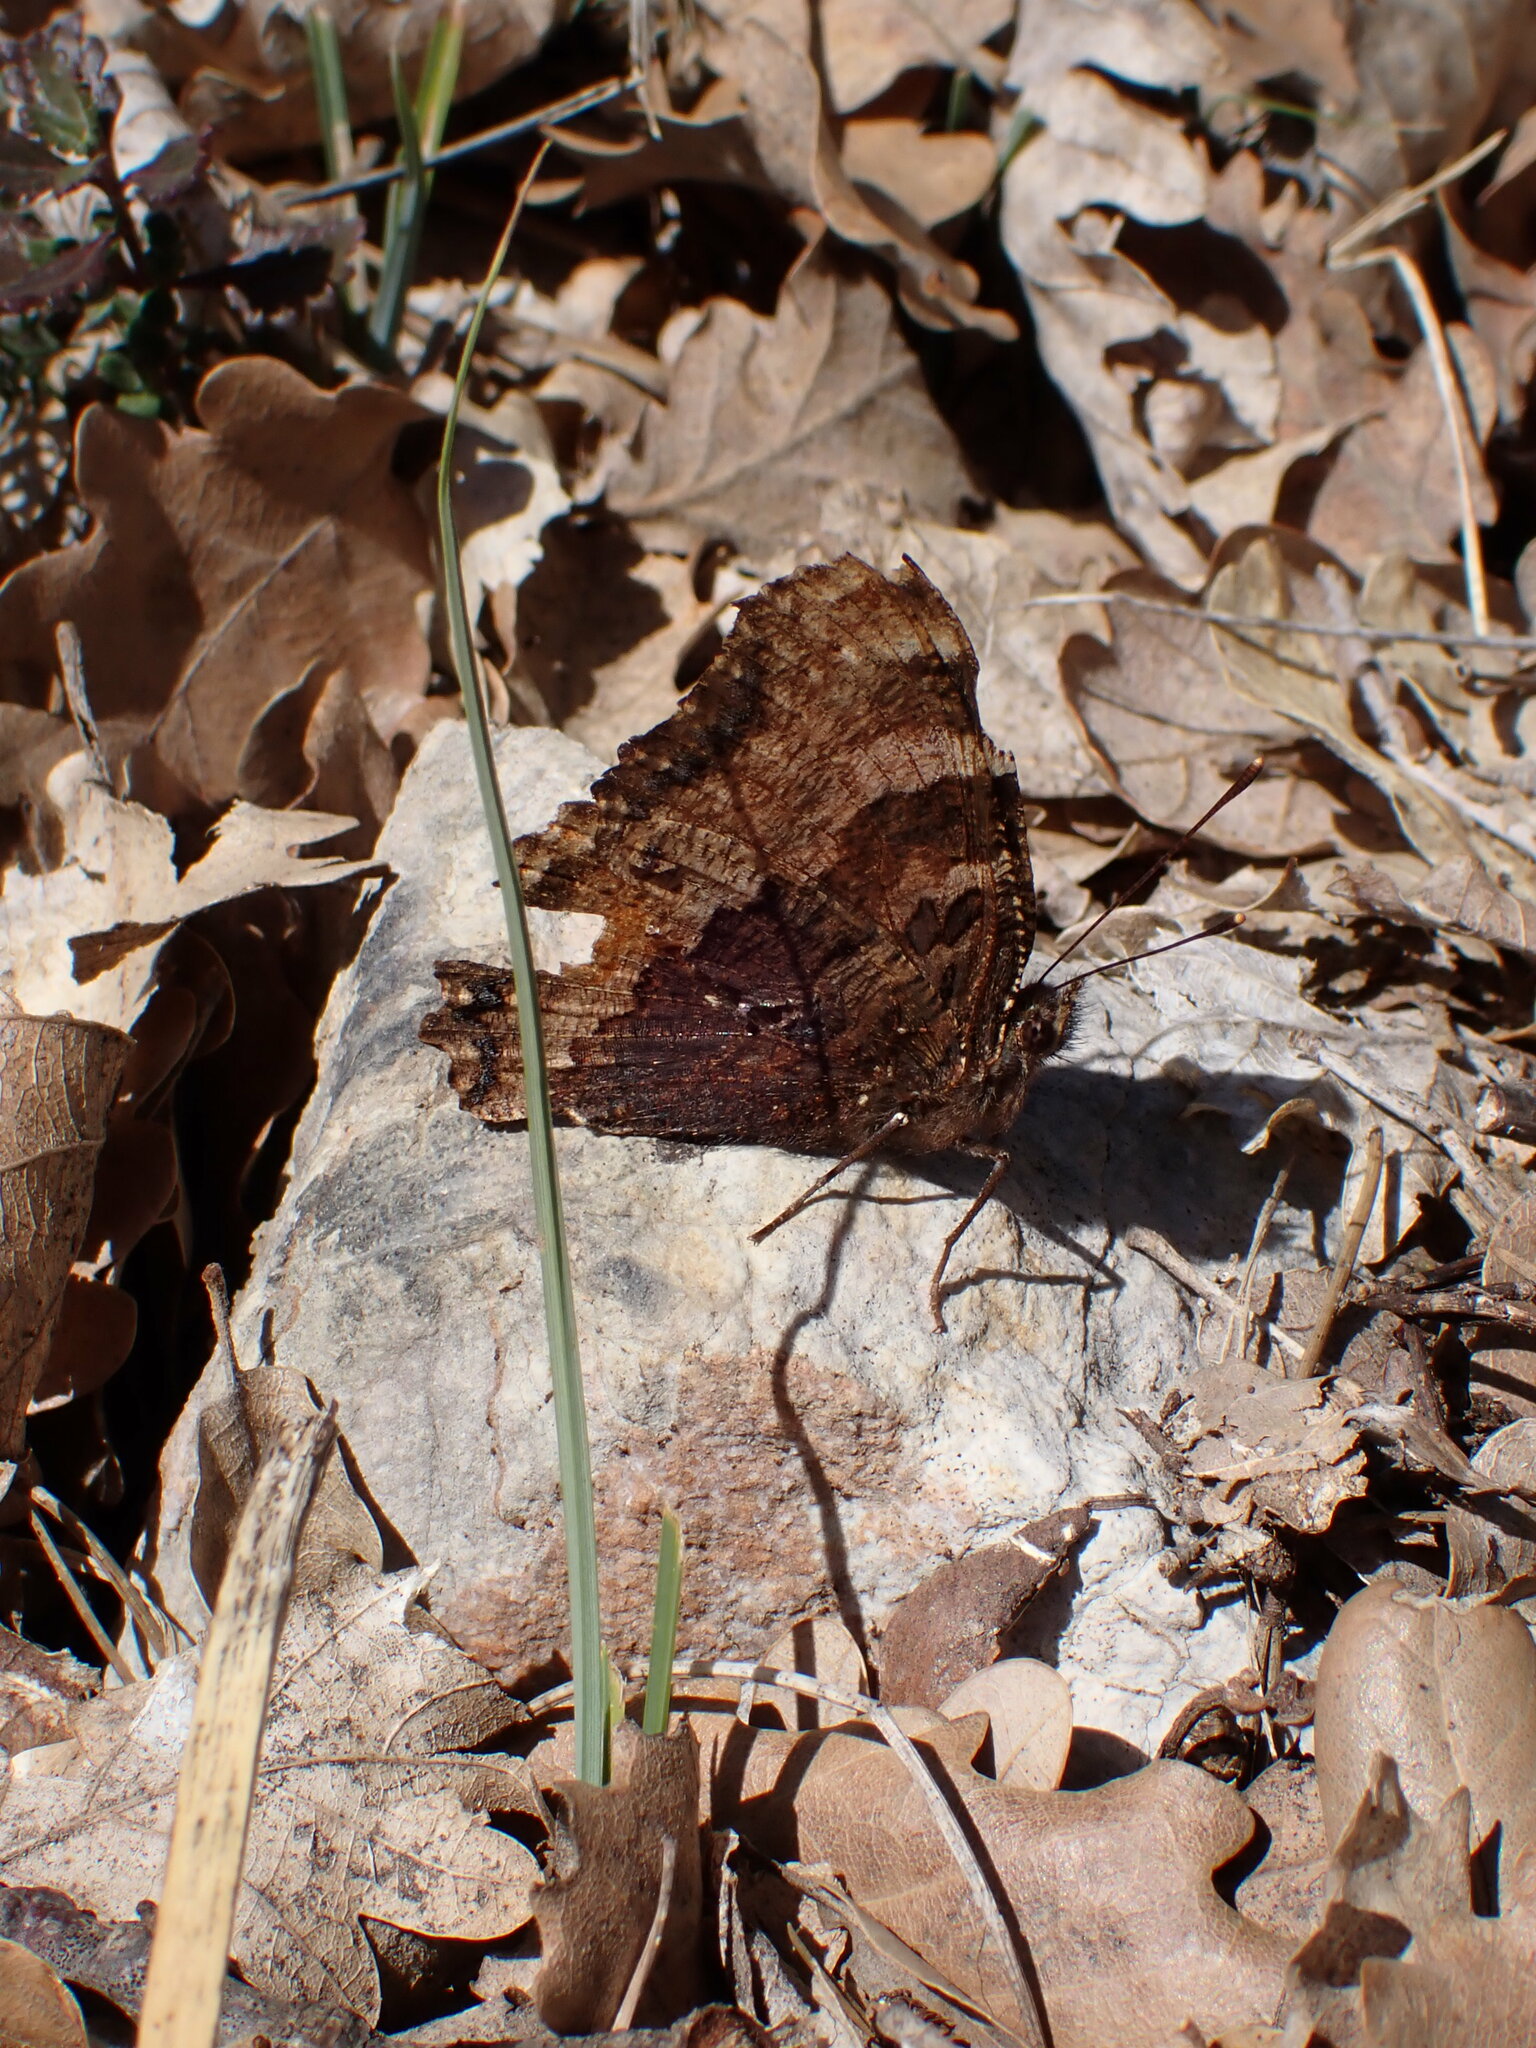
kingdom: Animalia
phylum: Arthropoda
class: Insecta
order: Lepidoptera
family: Nymphalidae
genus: Nymphalis
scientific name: Nymphalis polychloros
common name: Large tortoiseshell
